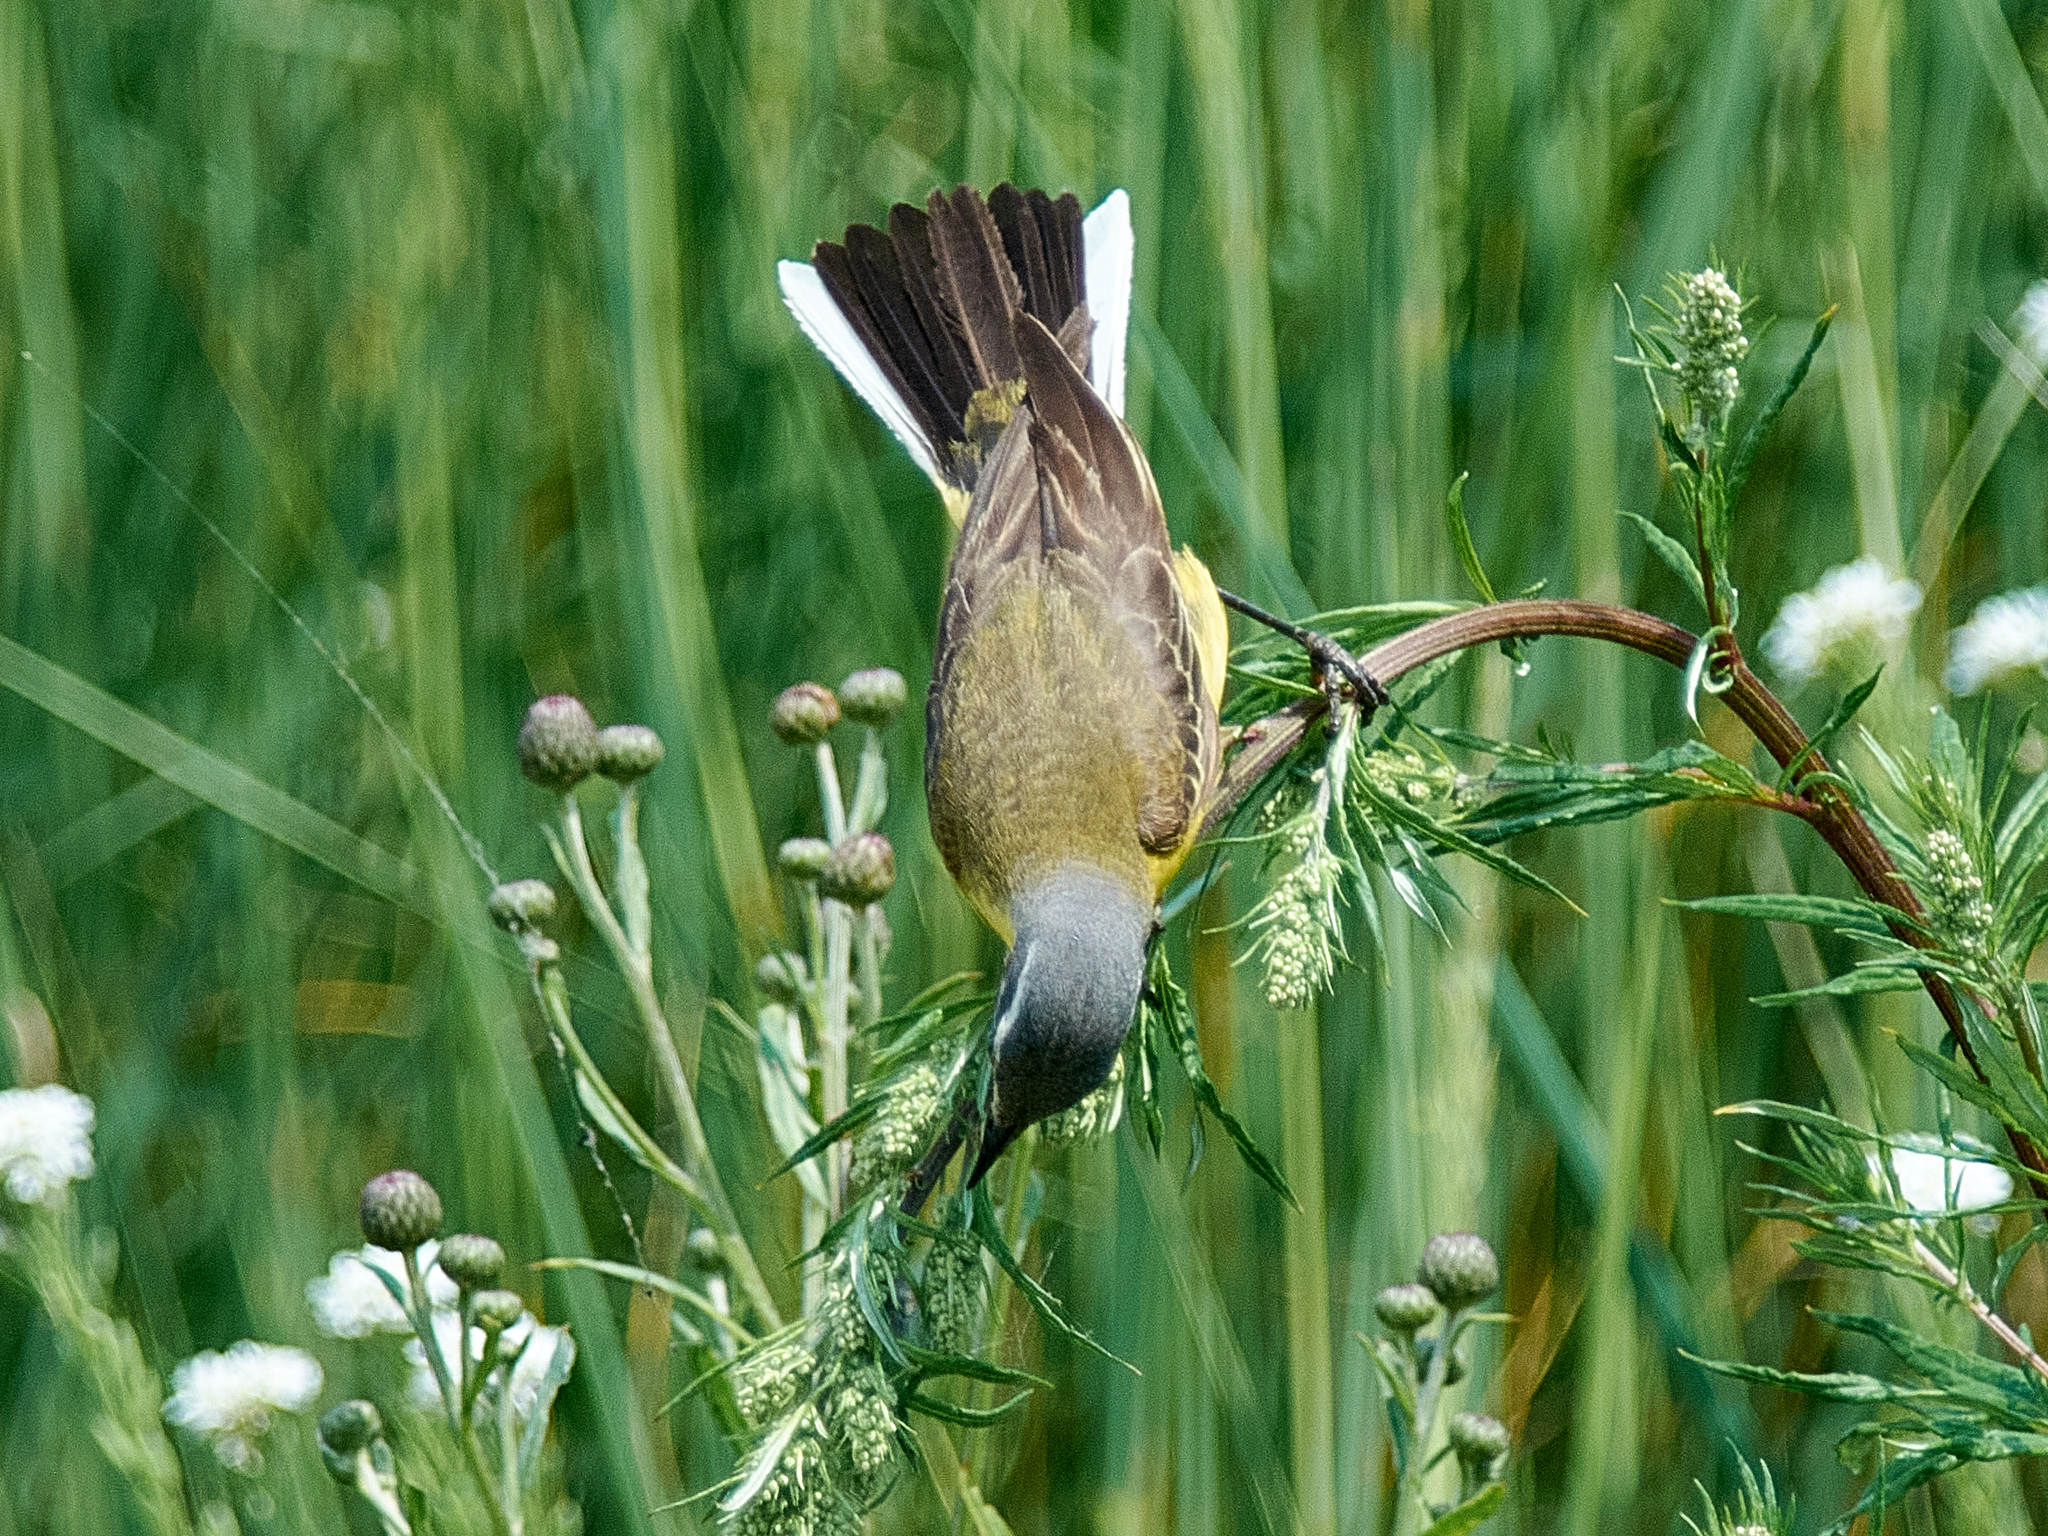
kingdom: Animalia
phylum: Chordata
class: Aves
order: Passeriformes
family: Motacillidae
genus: Motacilla
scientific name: Motacilla flava
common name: Western yellow wagtail
